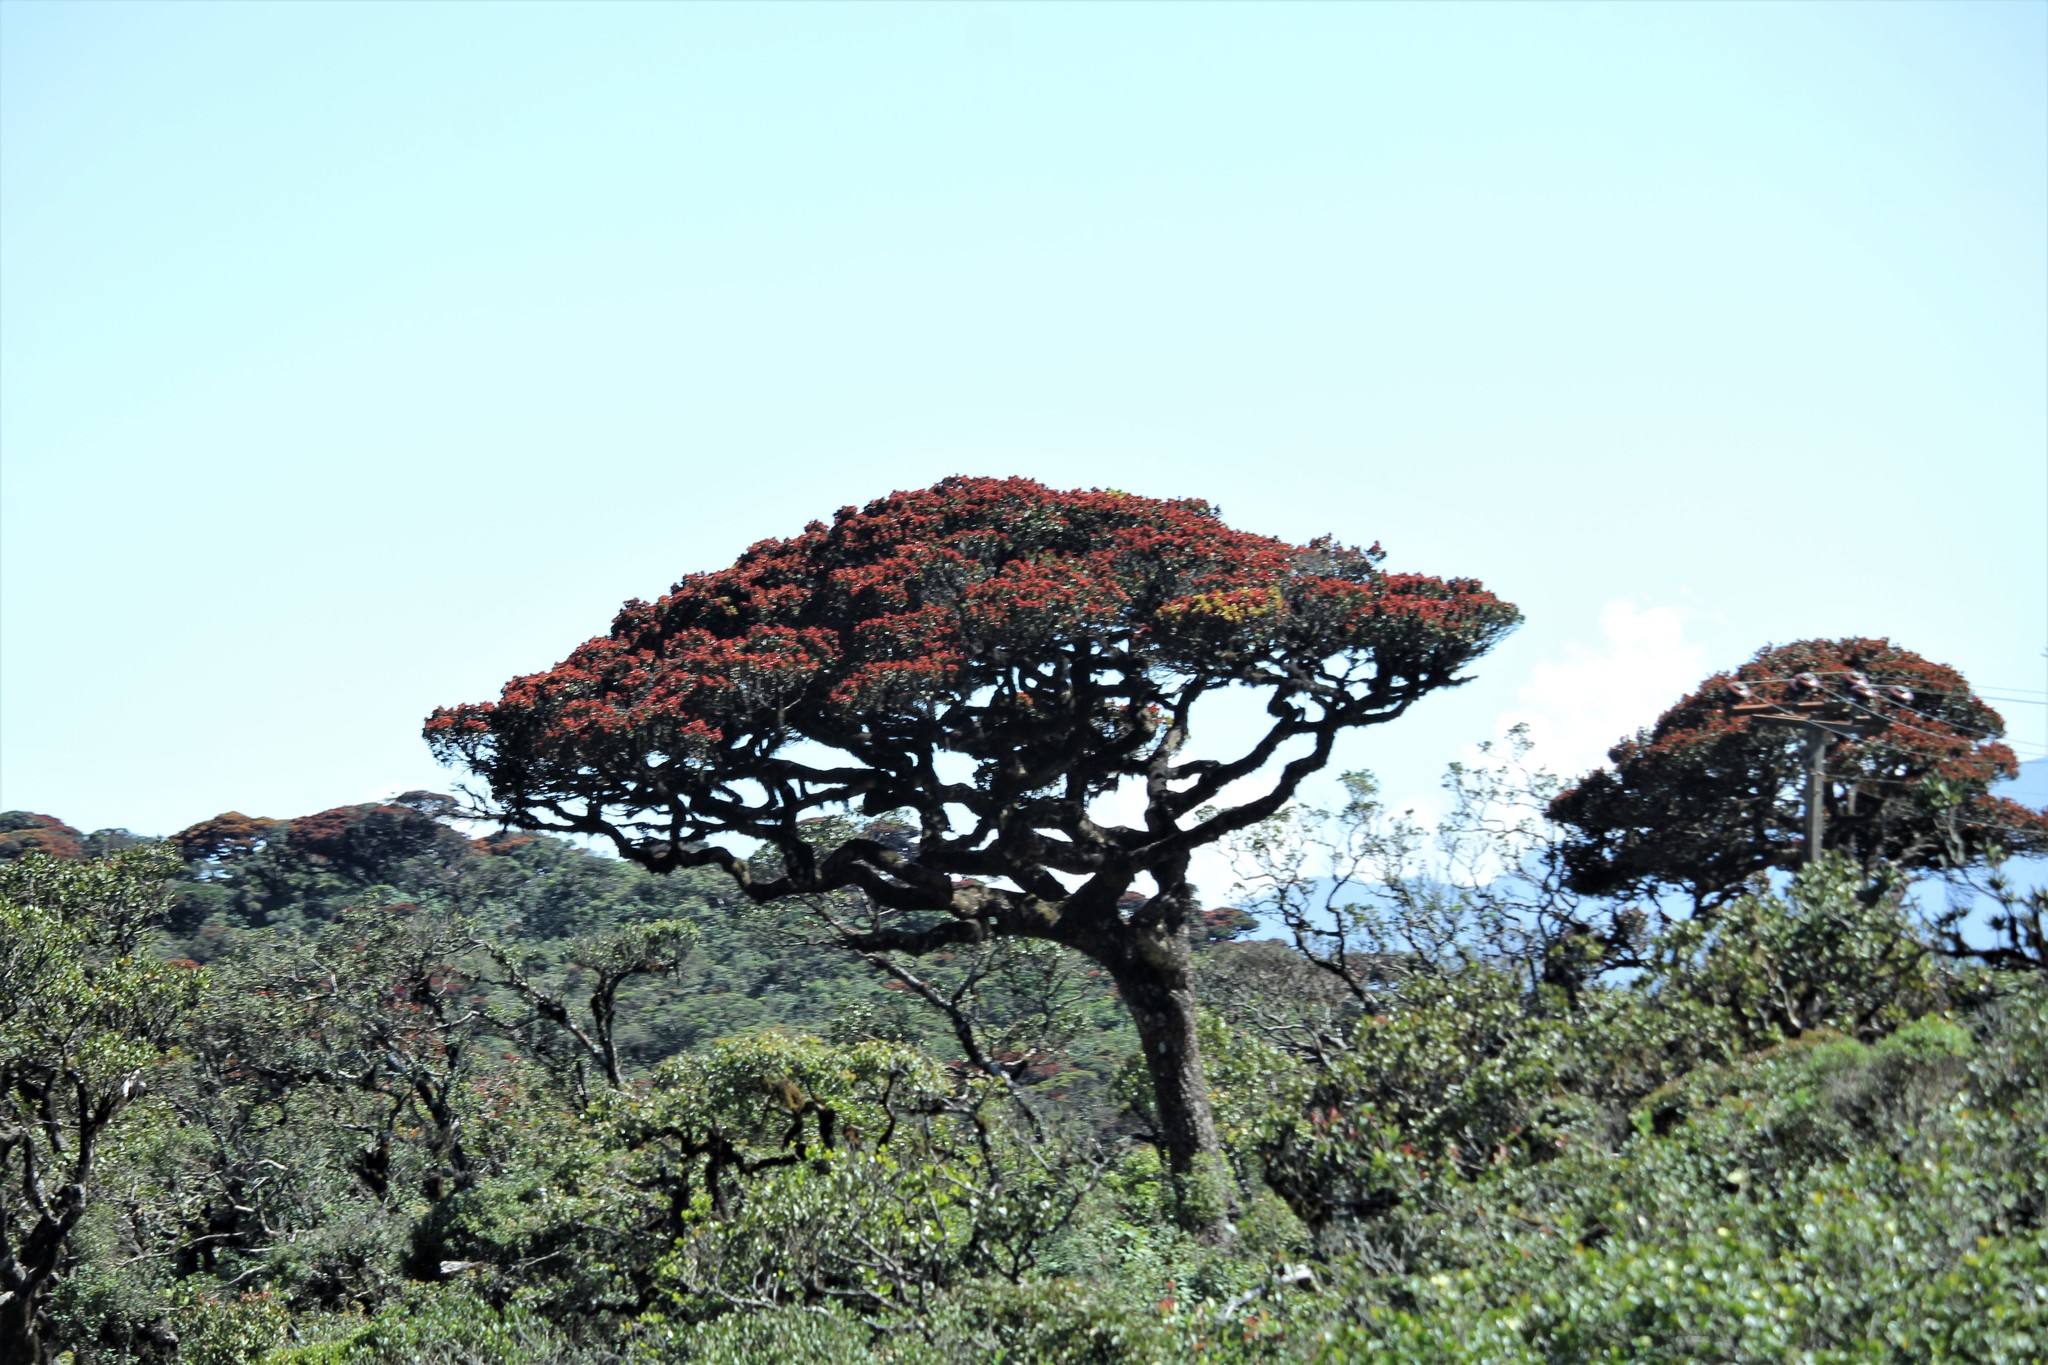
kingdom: Plantae
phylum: Tracheophyta
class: Magnoliopsida
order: Malpighiales
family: Calophyllaceae
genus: Calophyllum
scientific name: Calophyllum walkeri
